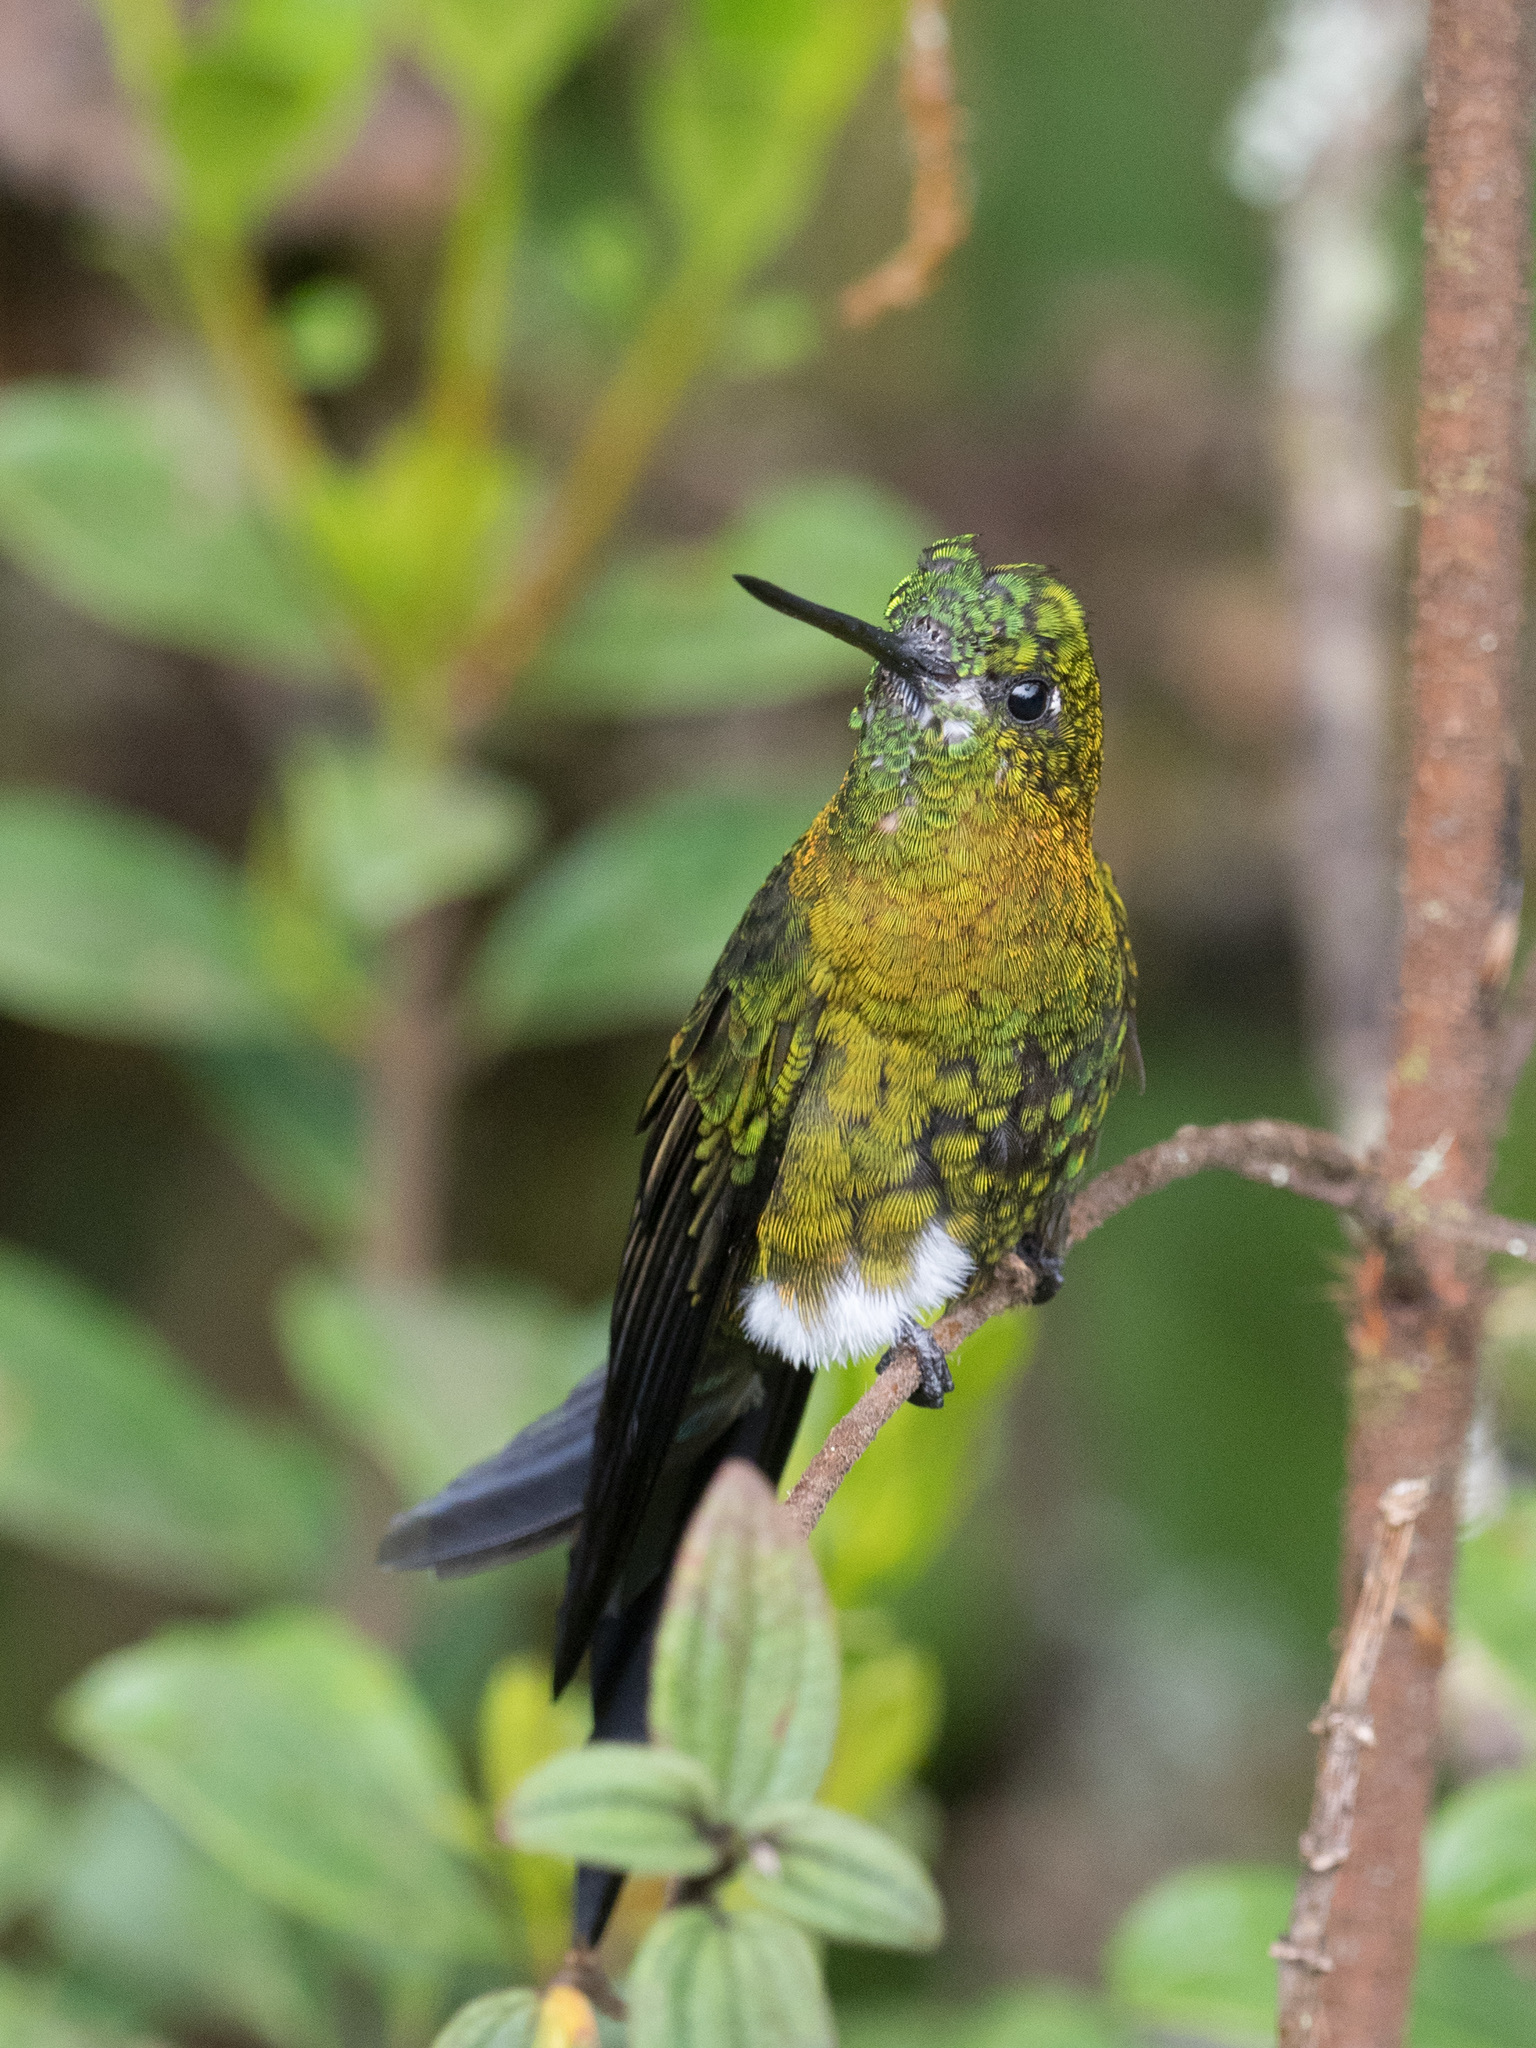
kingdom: Animalia
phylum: Chordata
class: Aves
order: Apodiformes
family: Trochilidae
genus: Eriocnemis
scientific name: Eriocnemis mosquera
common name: Golden-breasted puffleg
